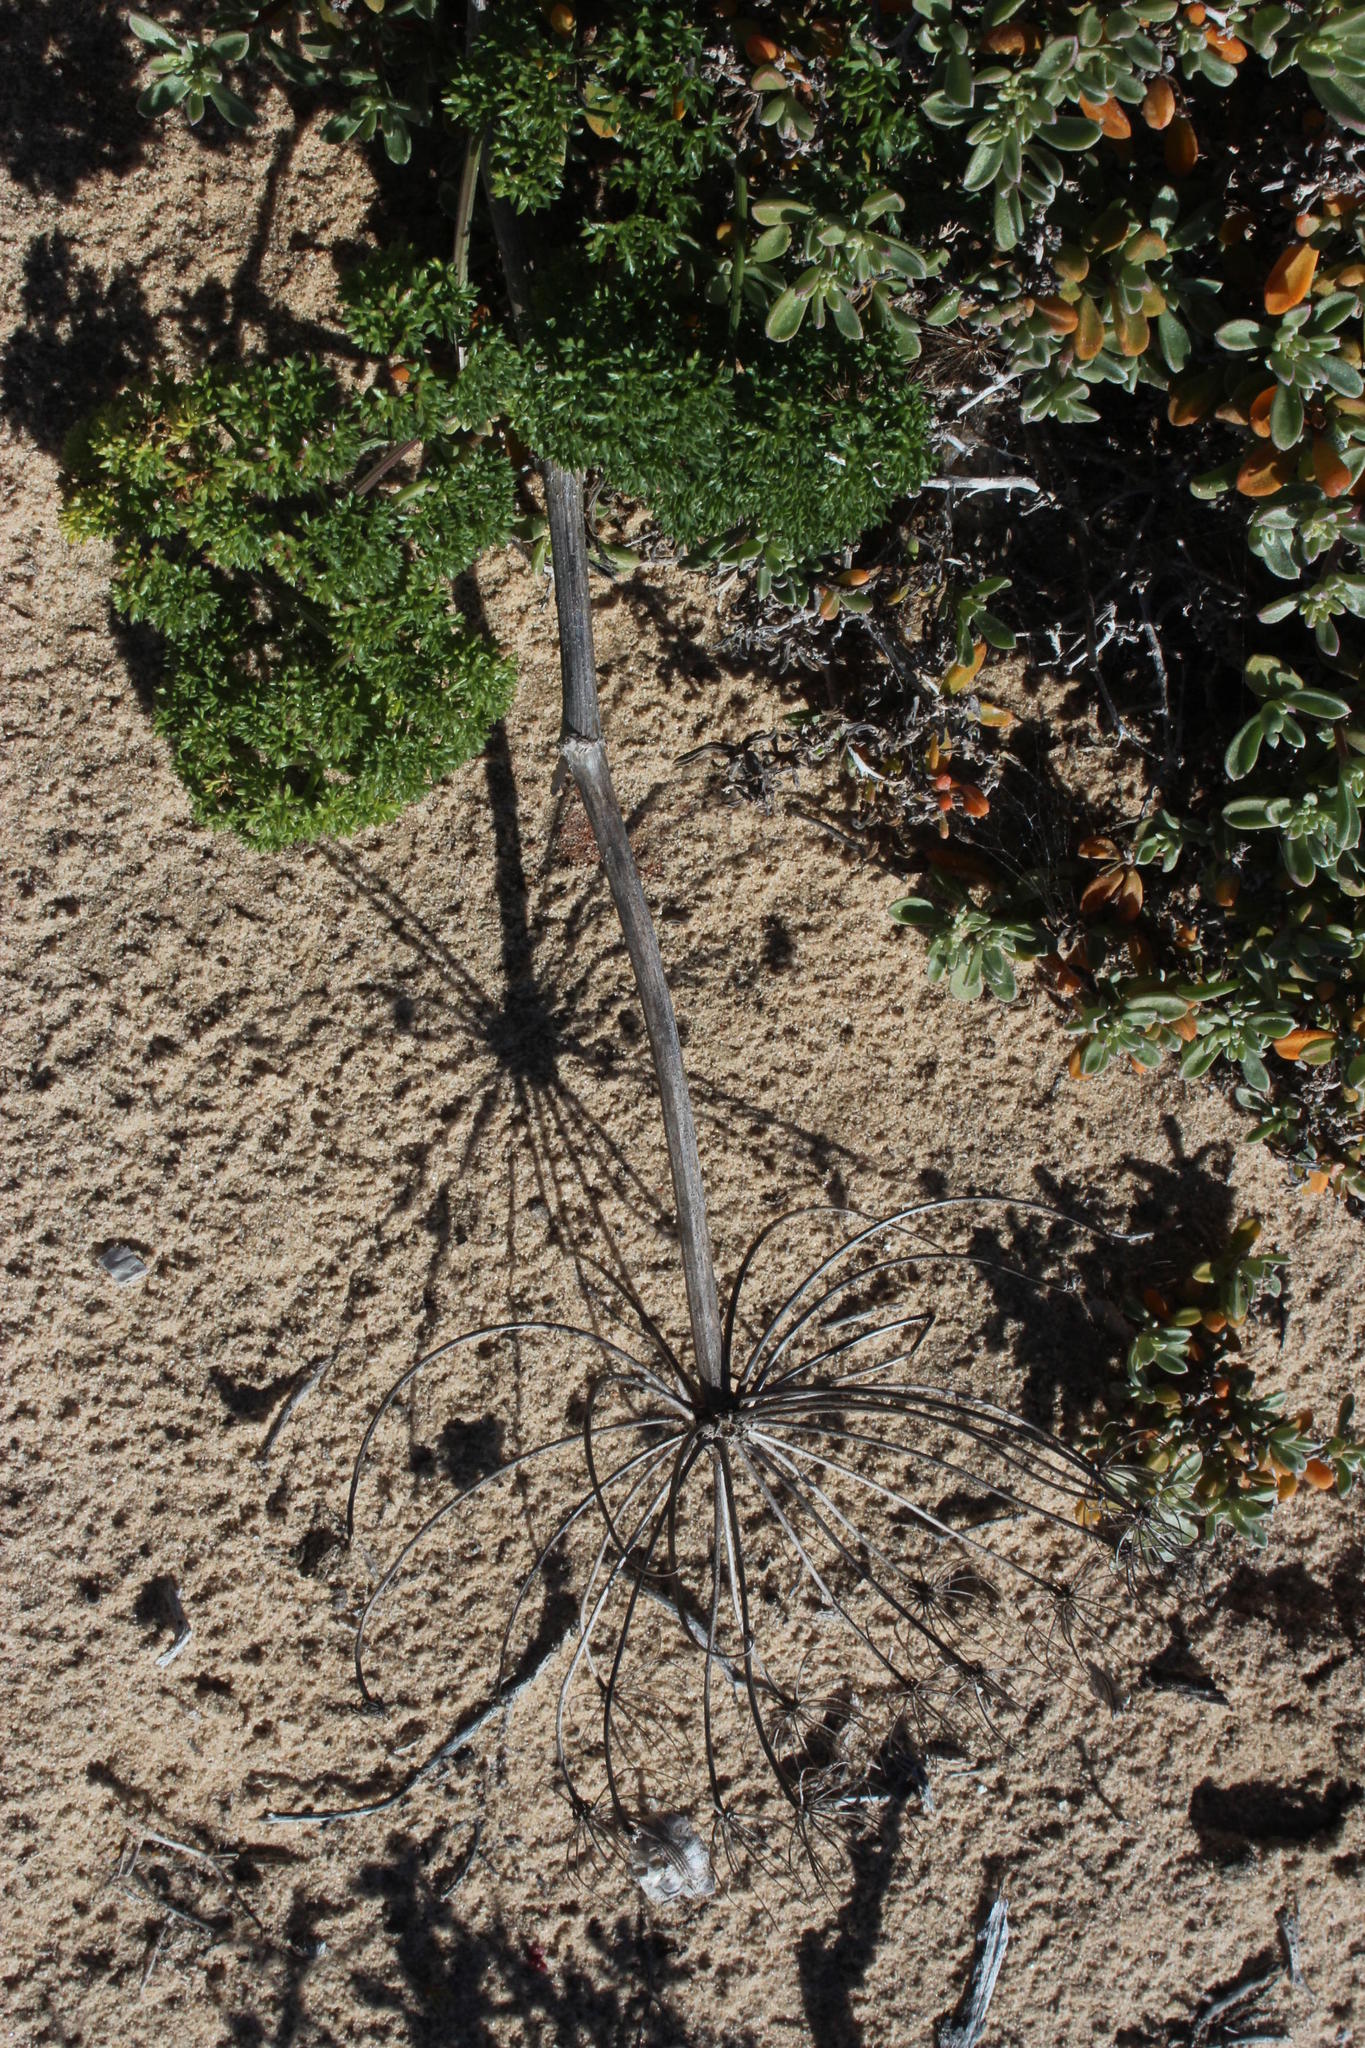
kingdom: Plantae
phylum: Tracheophyta
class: Magnoliopsida
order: Apiales
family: Apiaceae
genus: Cynorhiza
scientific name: Cynorhiza typica
